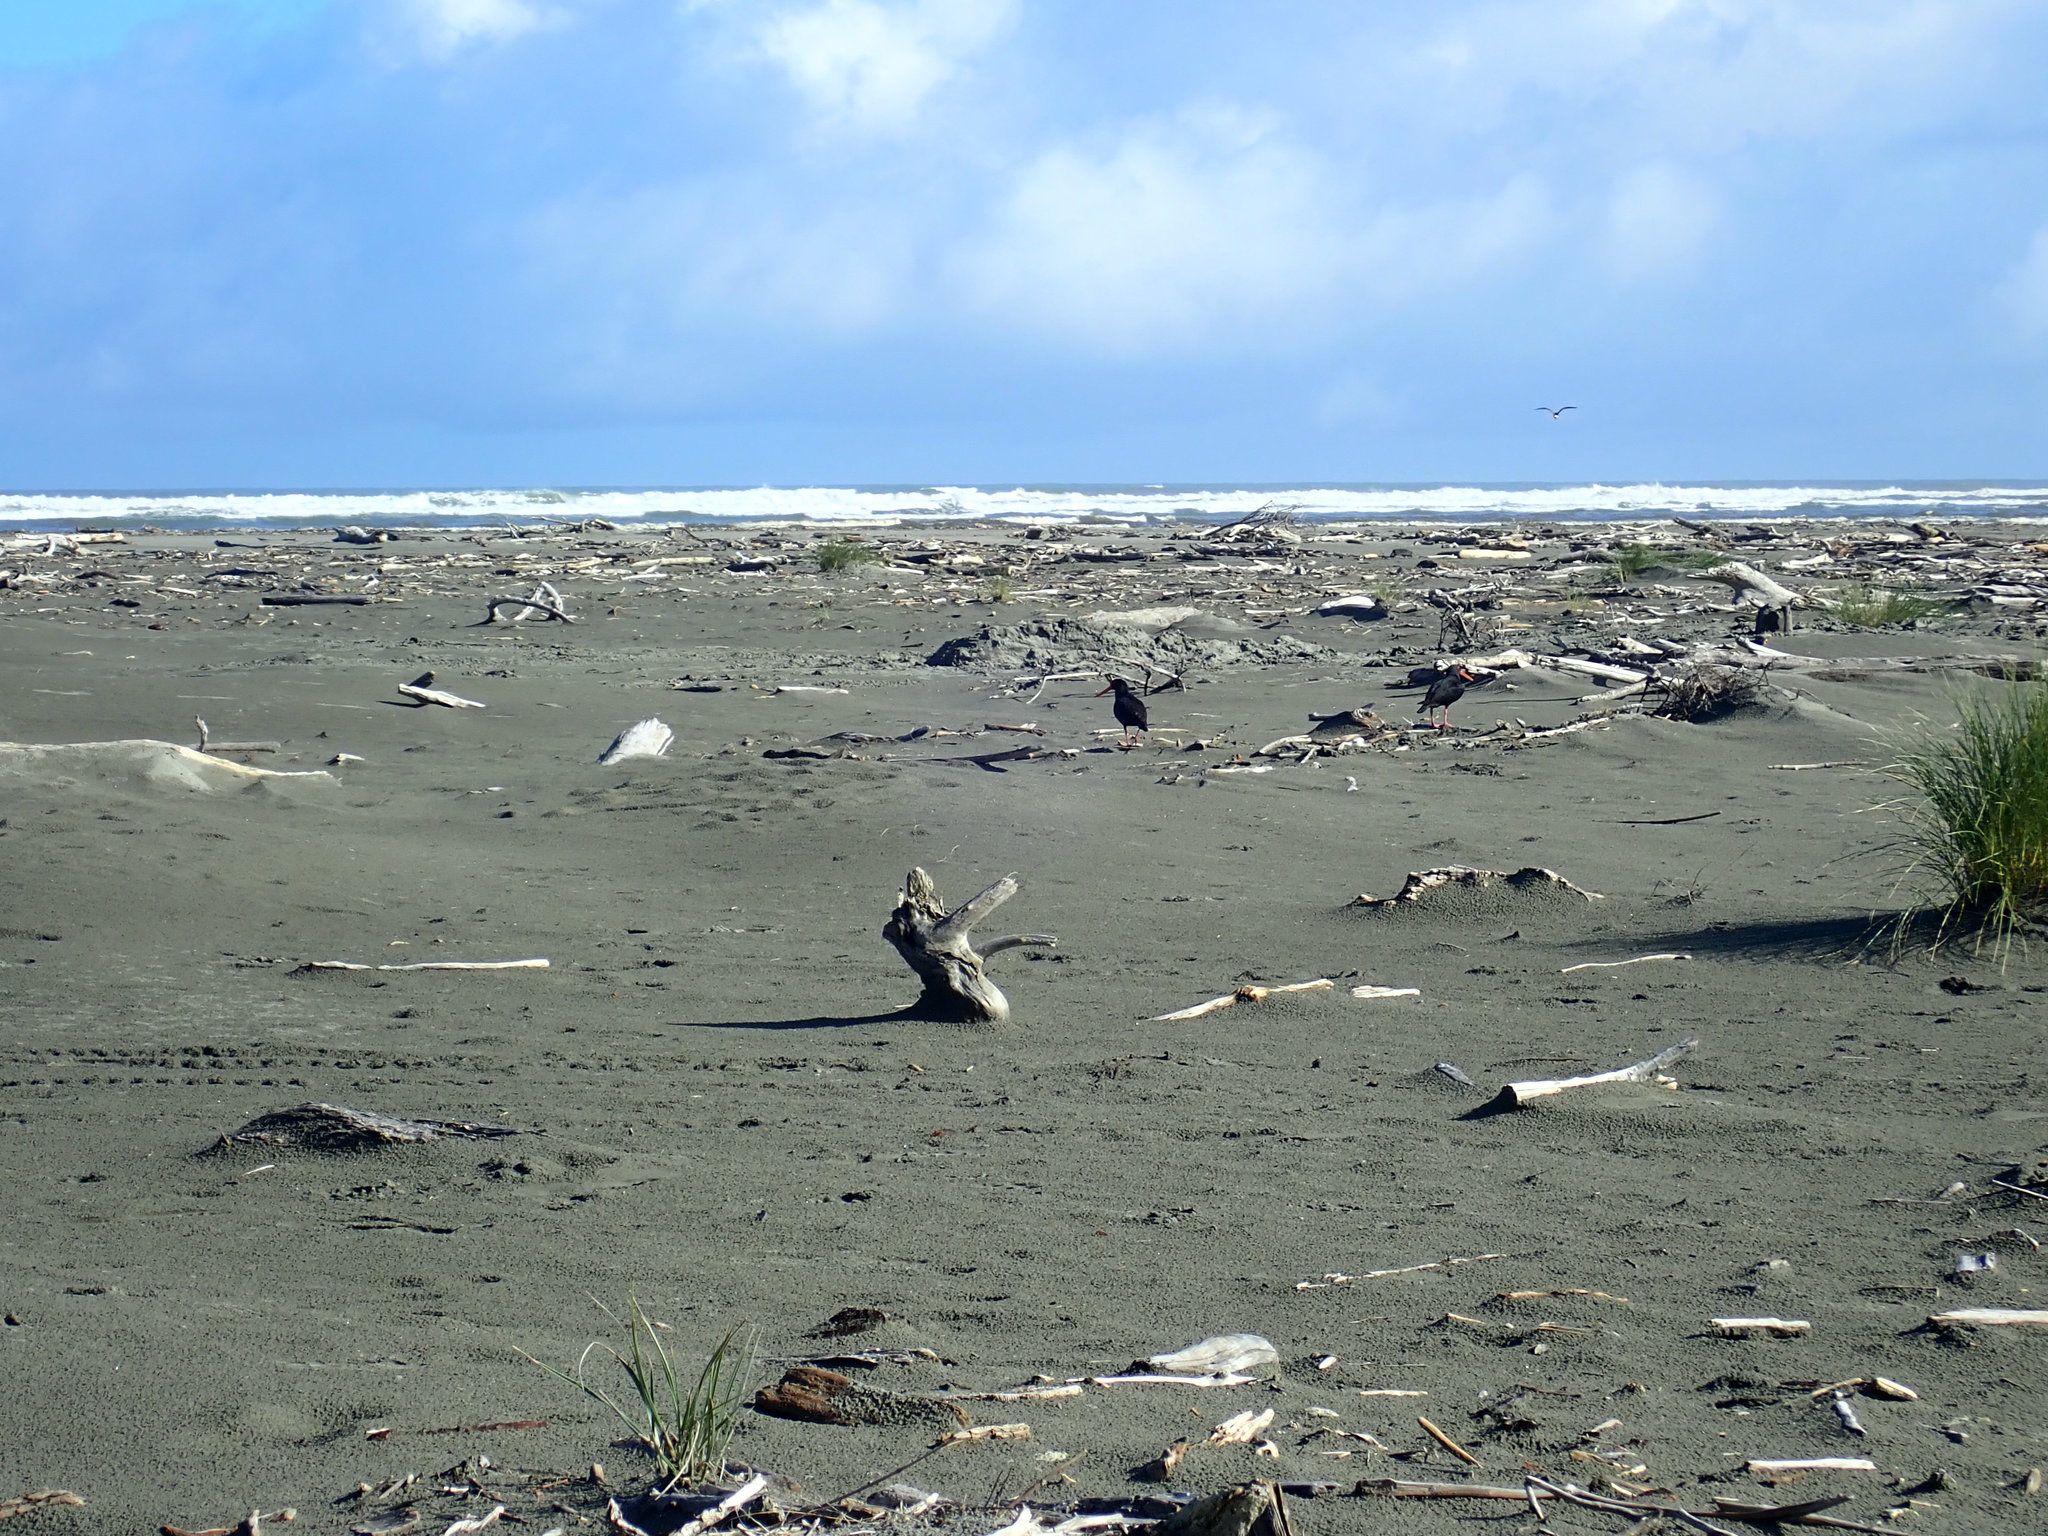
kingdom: Animalia
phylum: Chordata
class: Aves
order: Charadriiformes
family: Haematopodidae
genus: Haematopus
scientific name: Haematopus unicolor
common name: Variable oystercatcher
